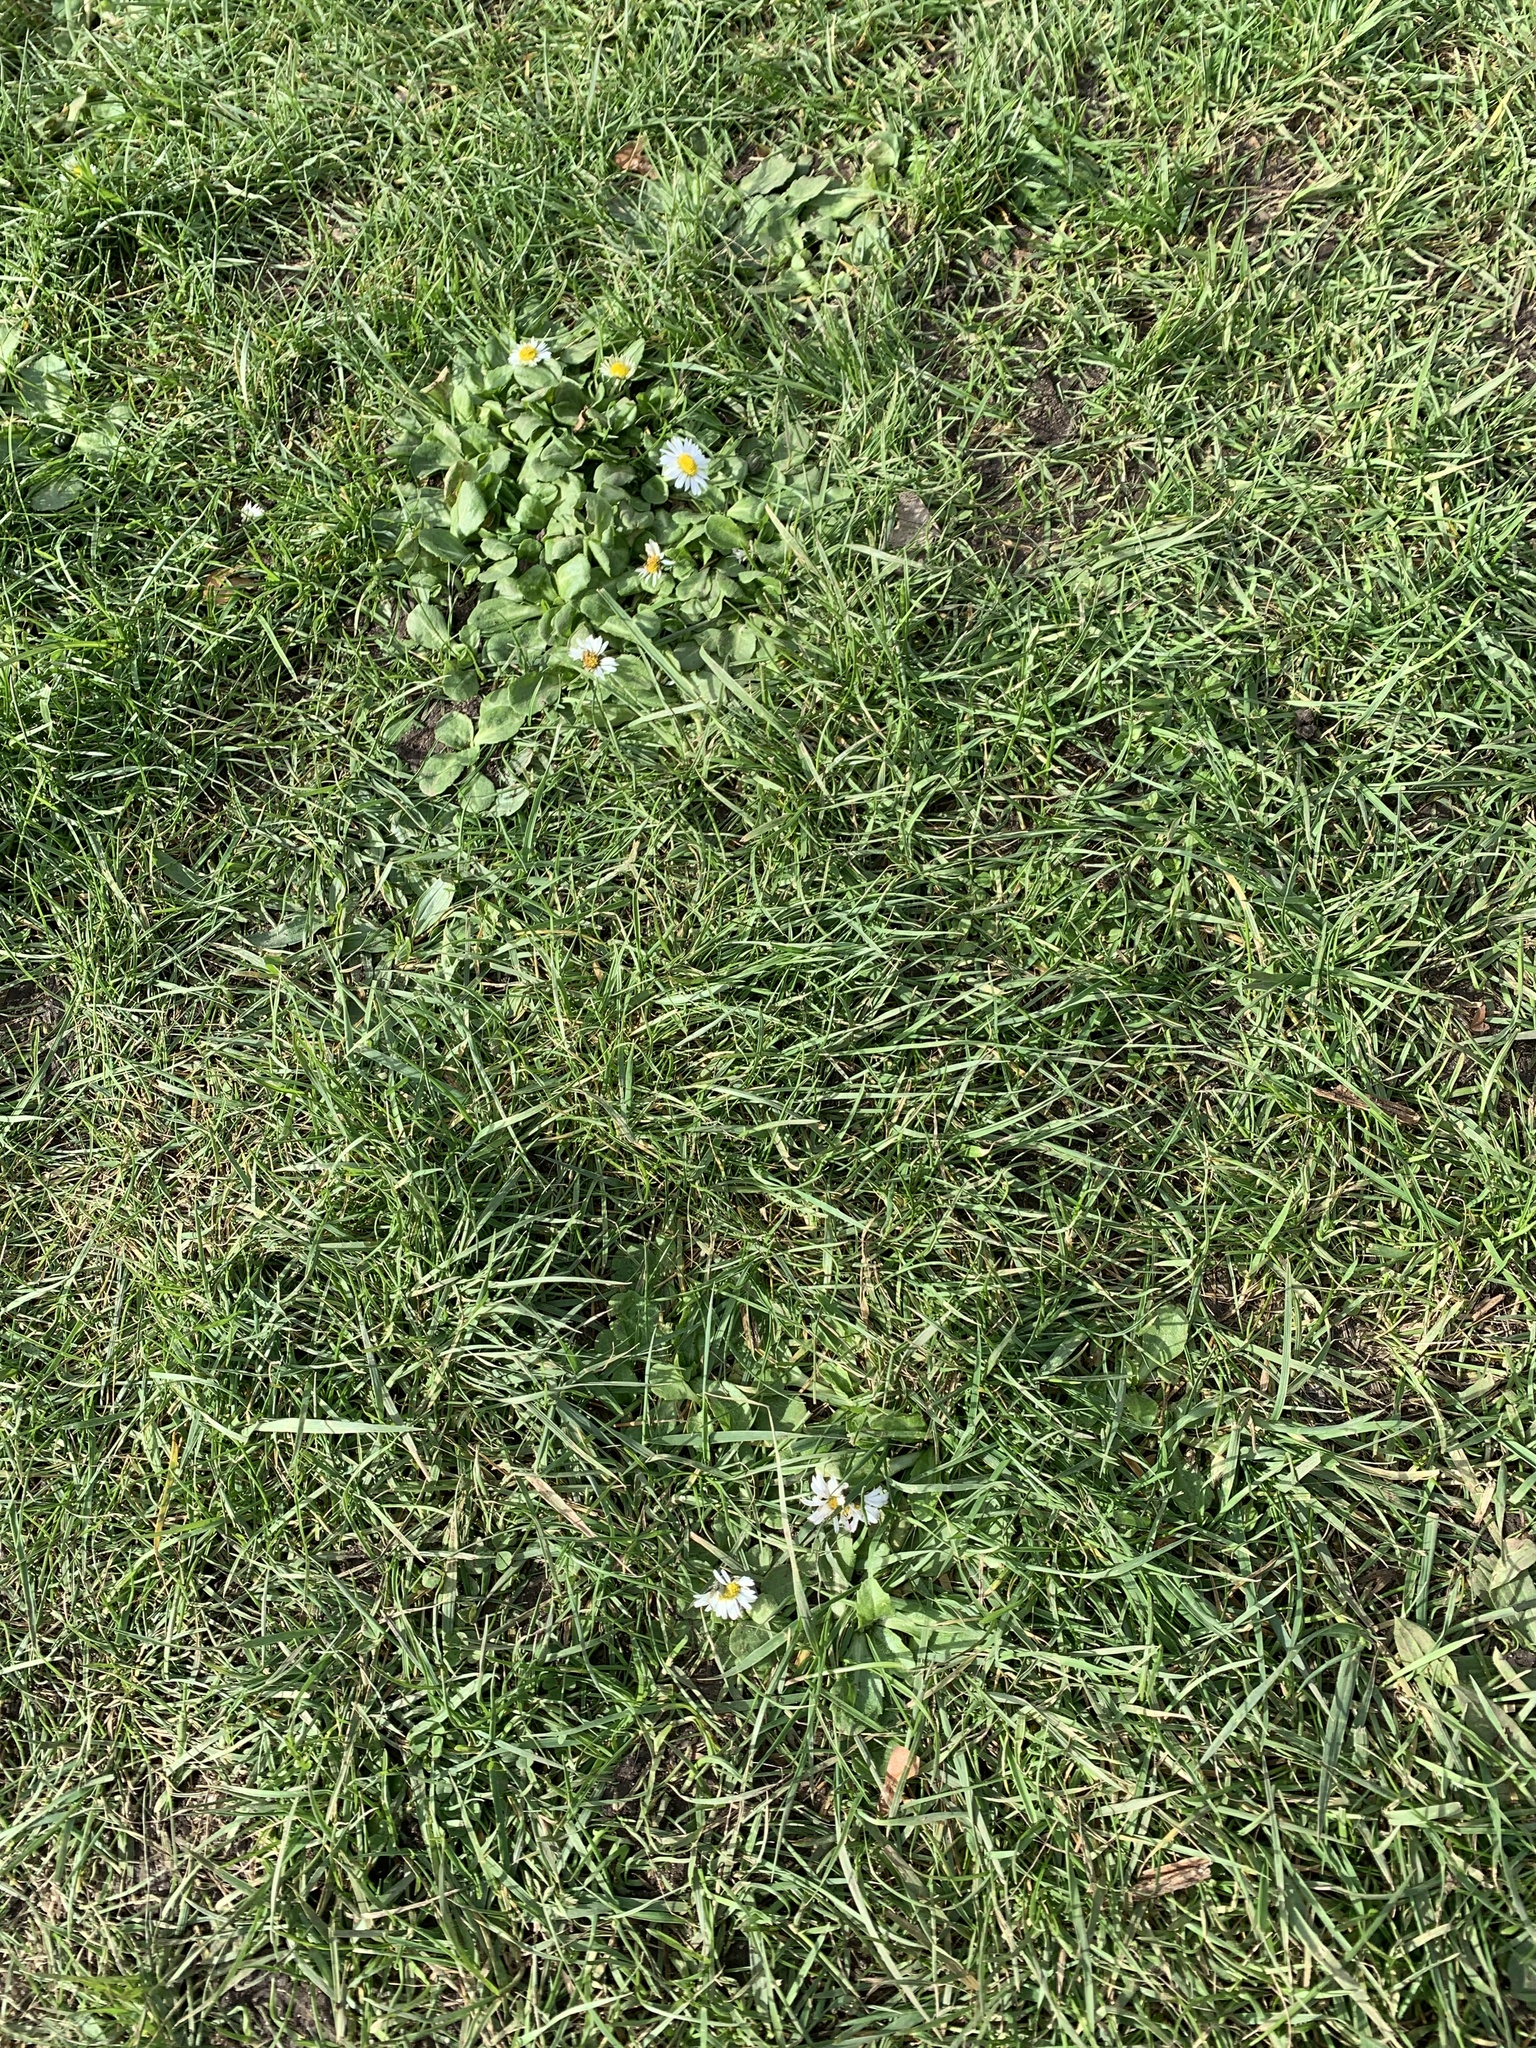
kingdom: Plantae
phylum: Tracheophyta
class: Magnoliopsida
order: Asterales
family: Asteraceae
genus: Bellis
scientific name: Bellis perennis
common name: Lawndaisy
